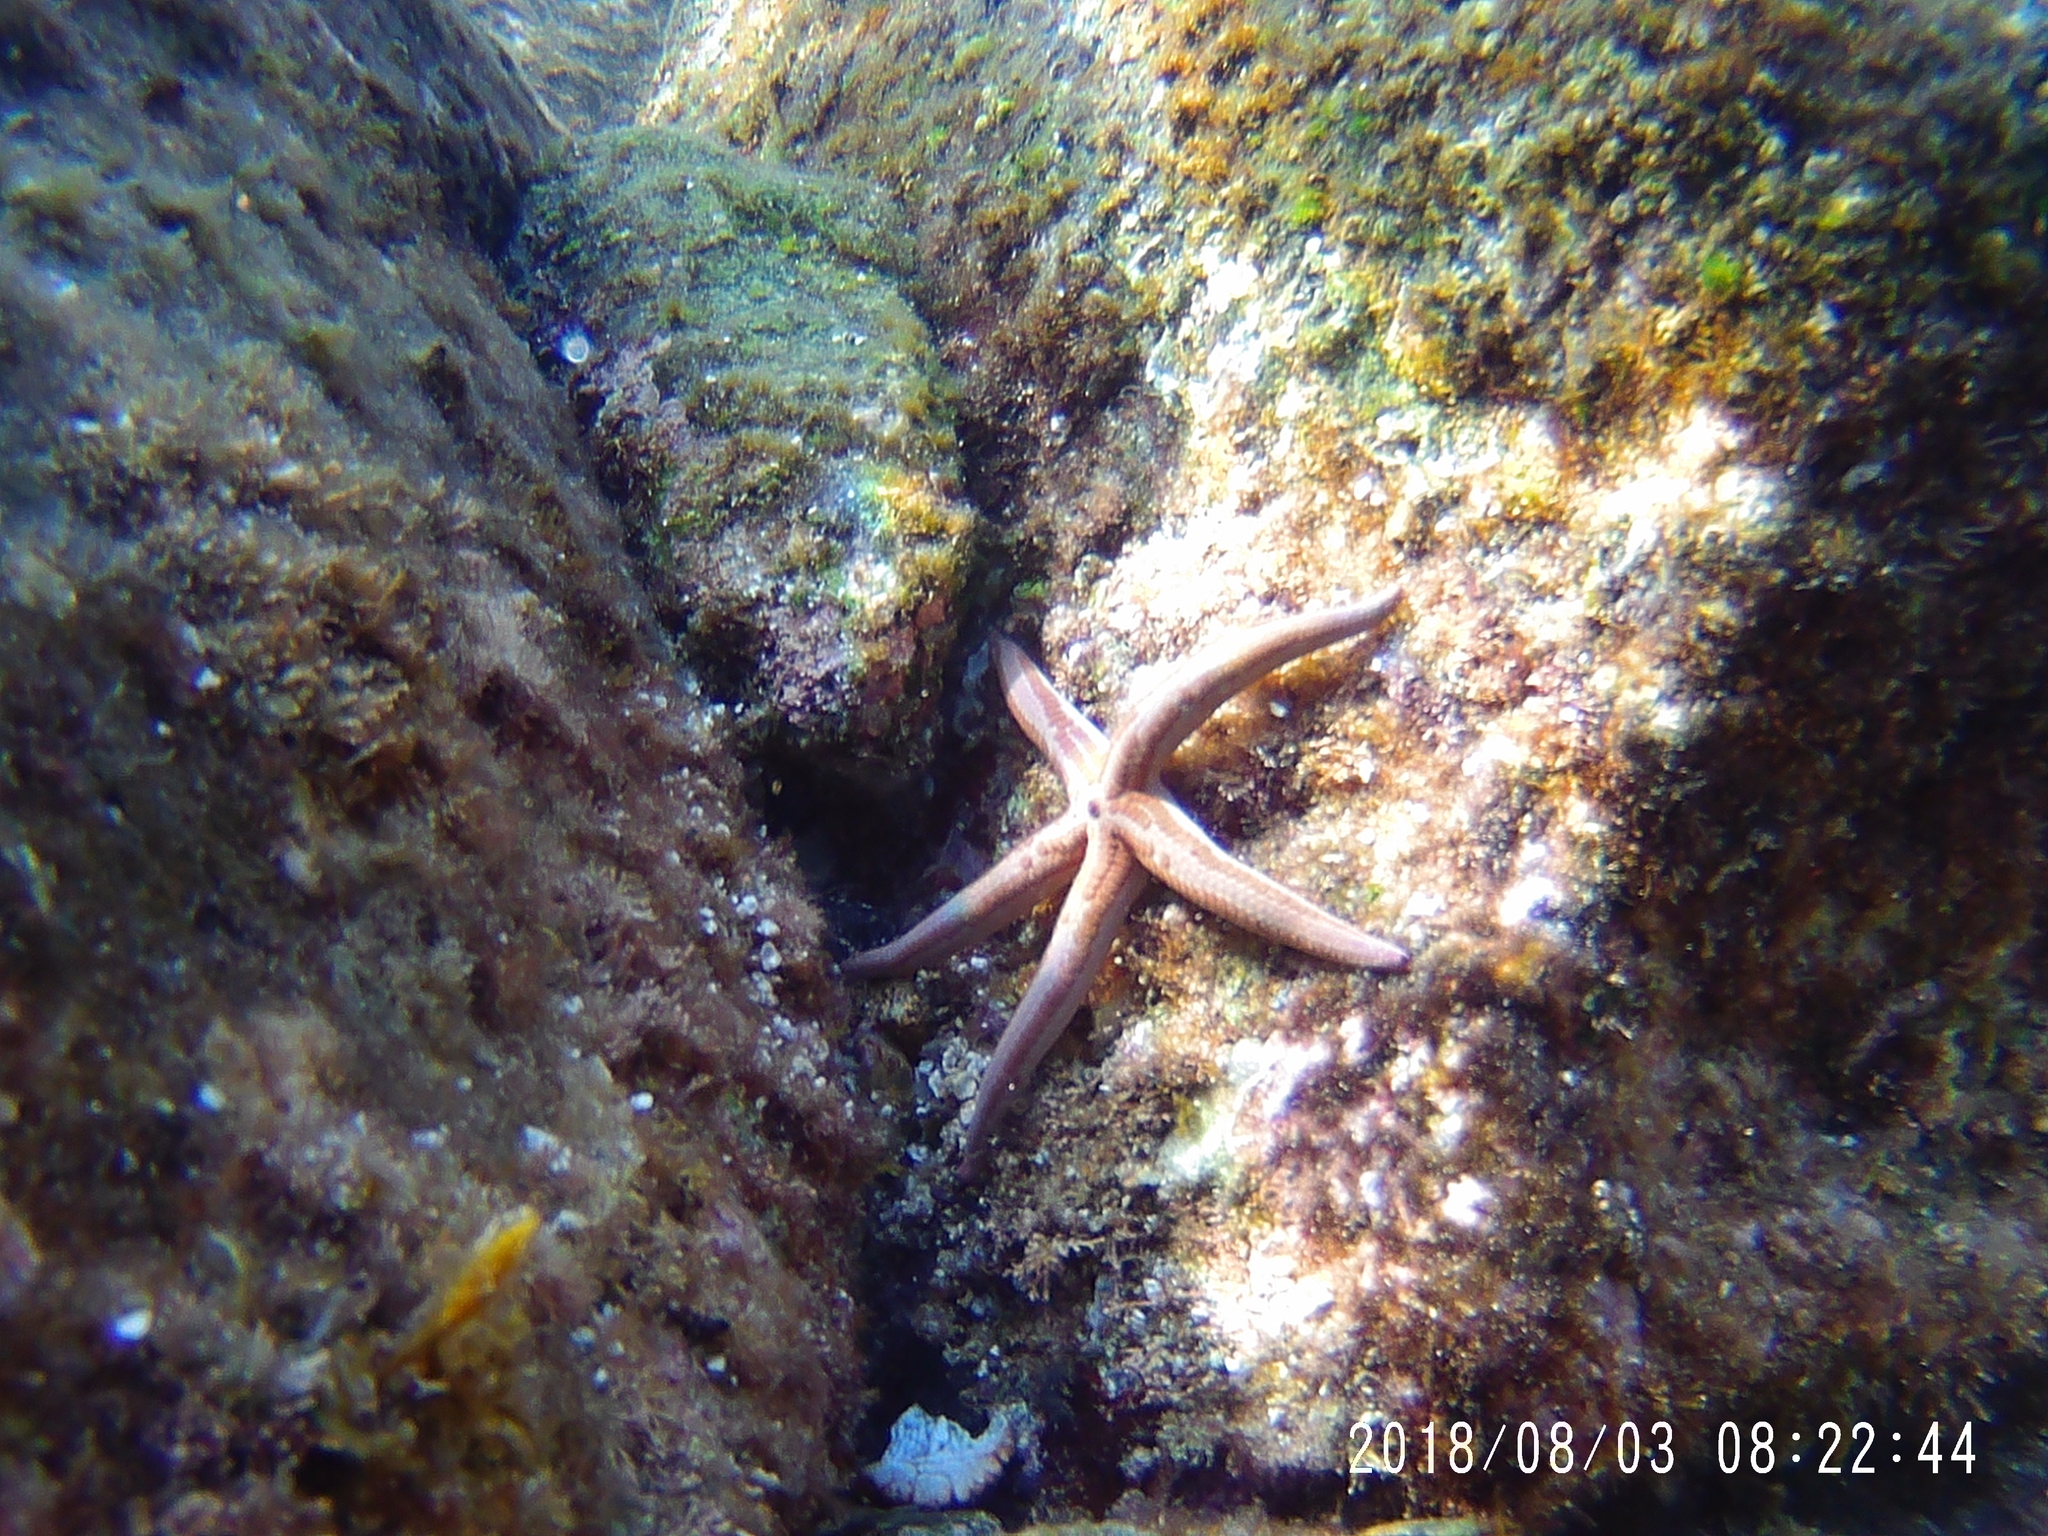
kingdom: Animalia
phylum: Echinodermata
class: Asteroidea
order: Valvatida
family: Ophidiasteridae
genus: Phataria
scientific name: Phataria unifascialis
